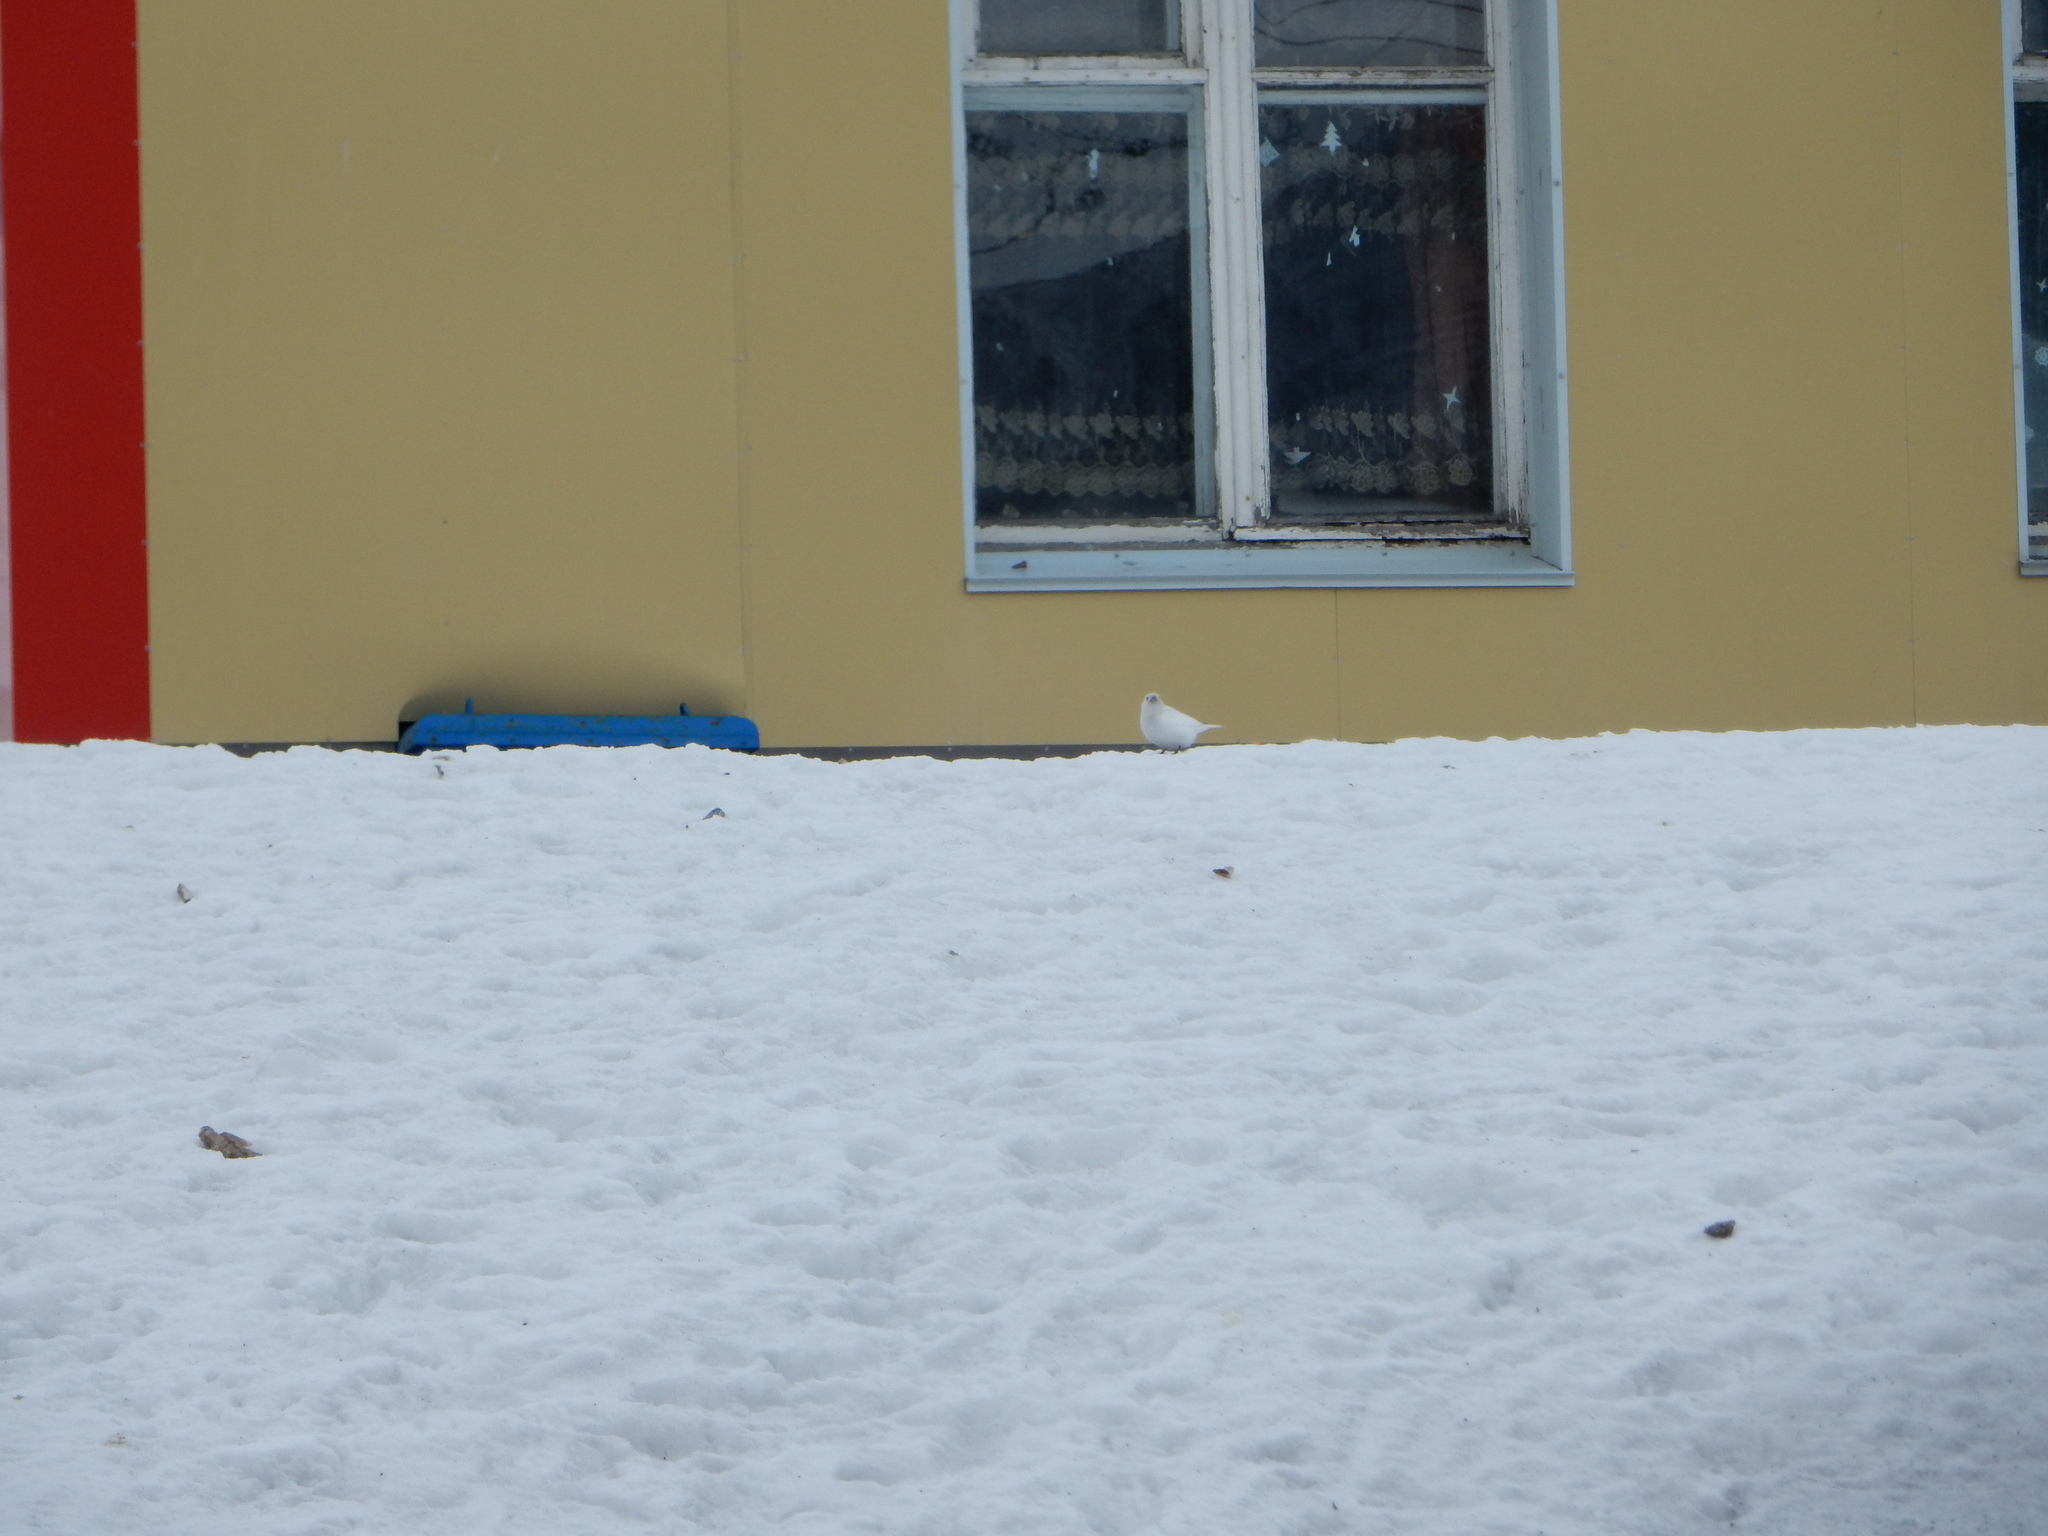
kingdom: Animalia
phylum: Chordata
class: Aves
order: Passeriformes
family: Calcariidae
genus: Plectrophenax
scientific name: Plectrophenax hyperboreus
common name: Mckay's bunting
